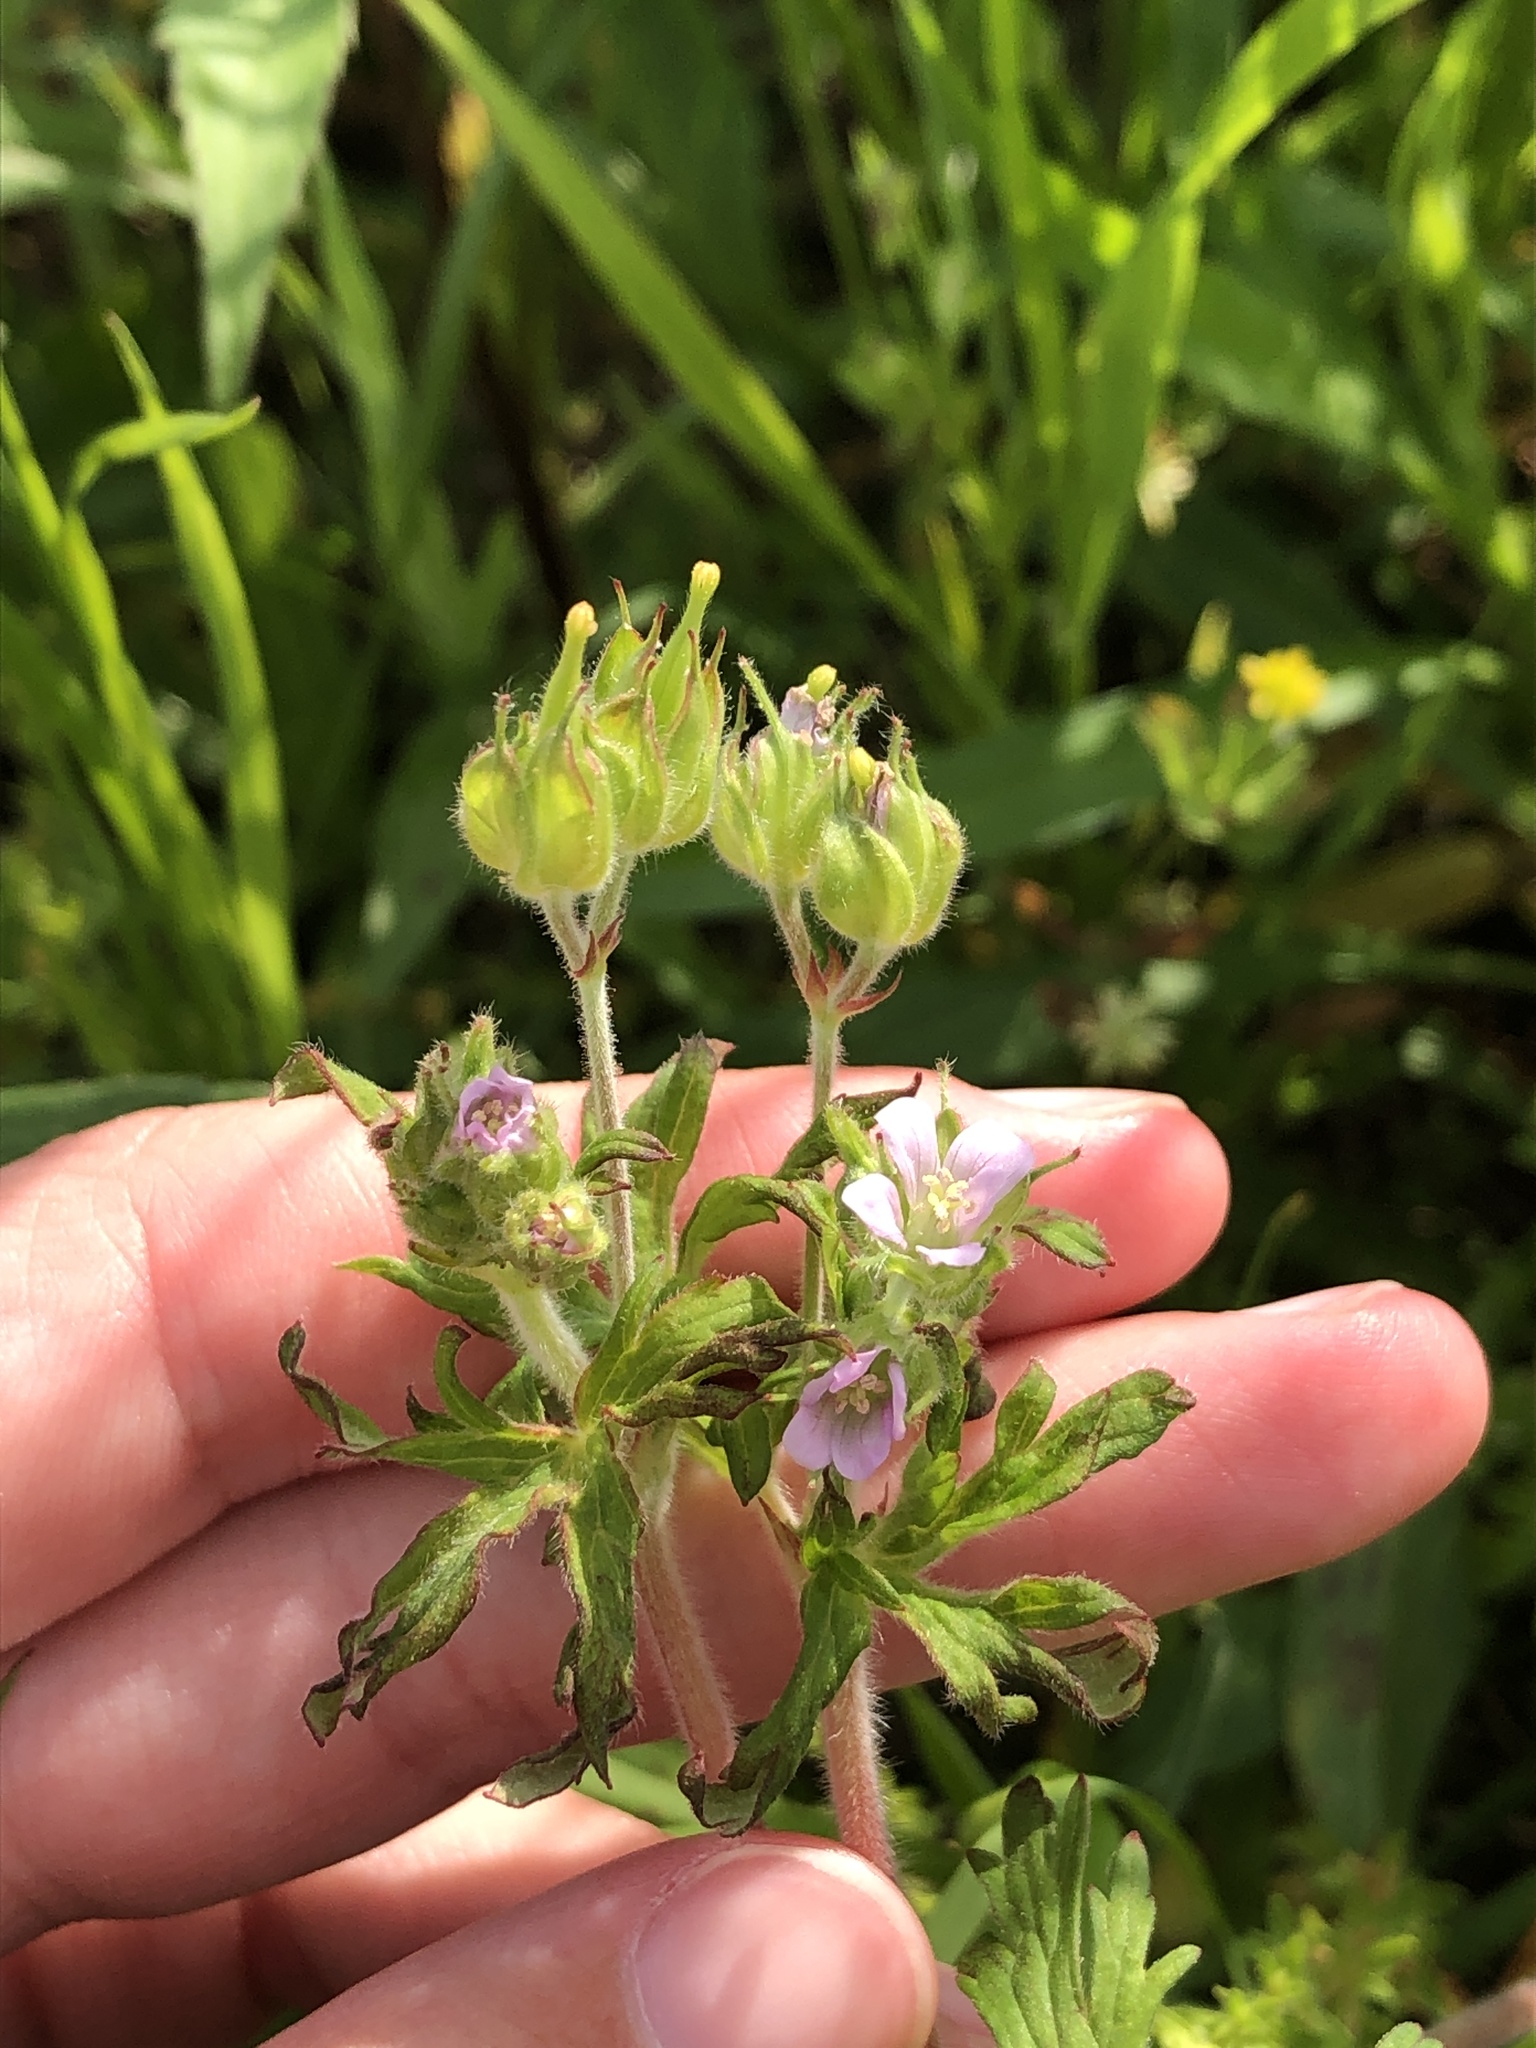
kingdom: Plantae
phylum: Tracheophyta
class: Magnoliopsida
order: Geraniales
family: Geraniaceae
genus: Geranium
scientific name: Geranium carolinianum
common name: Carolina crane's-bill
